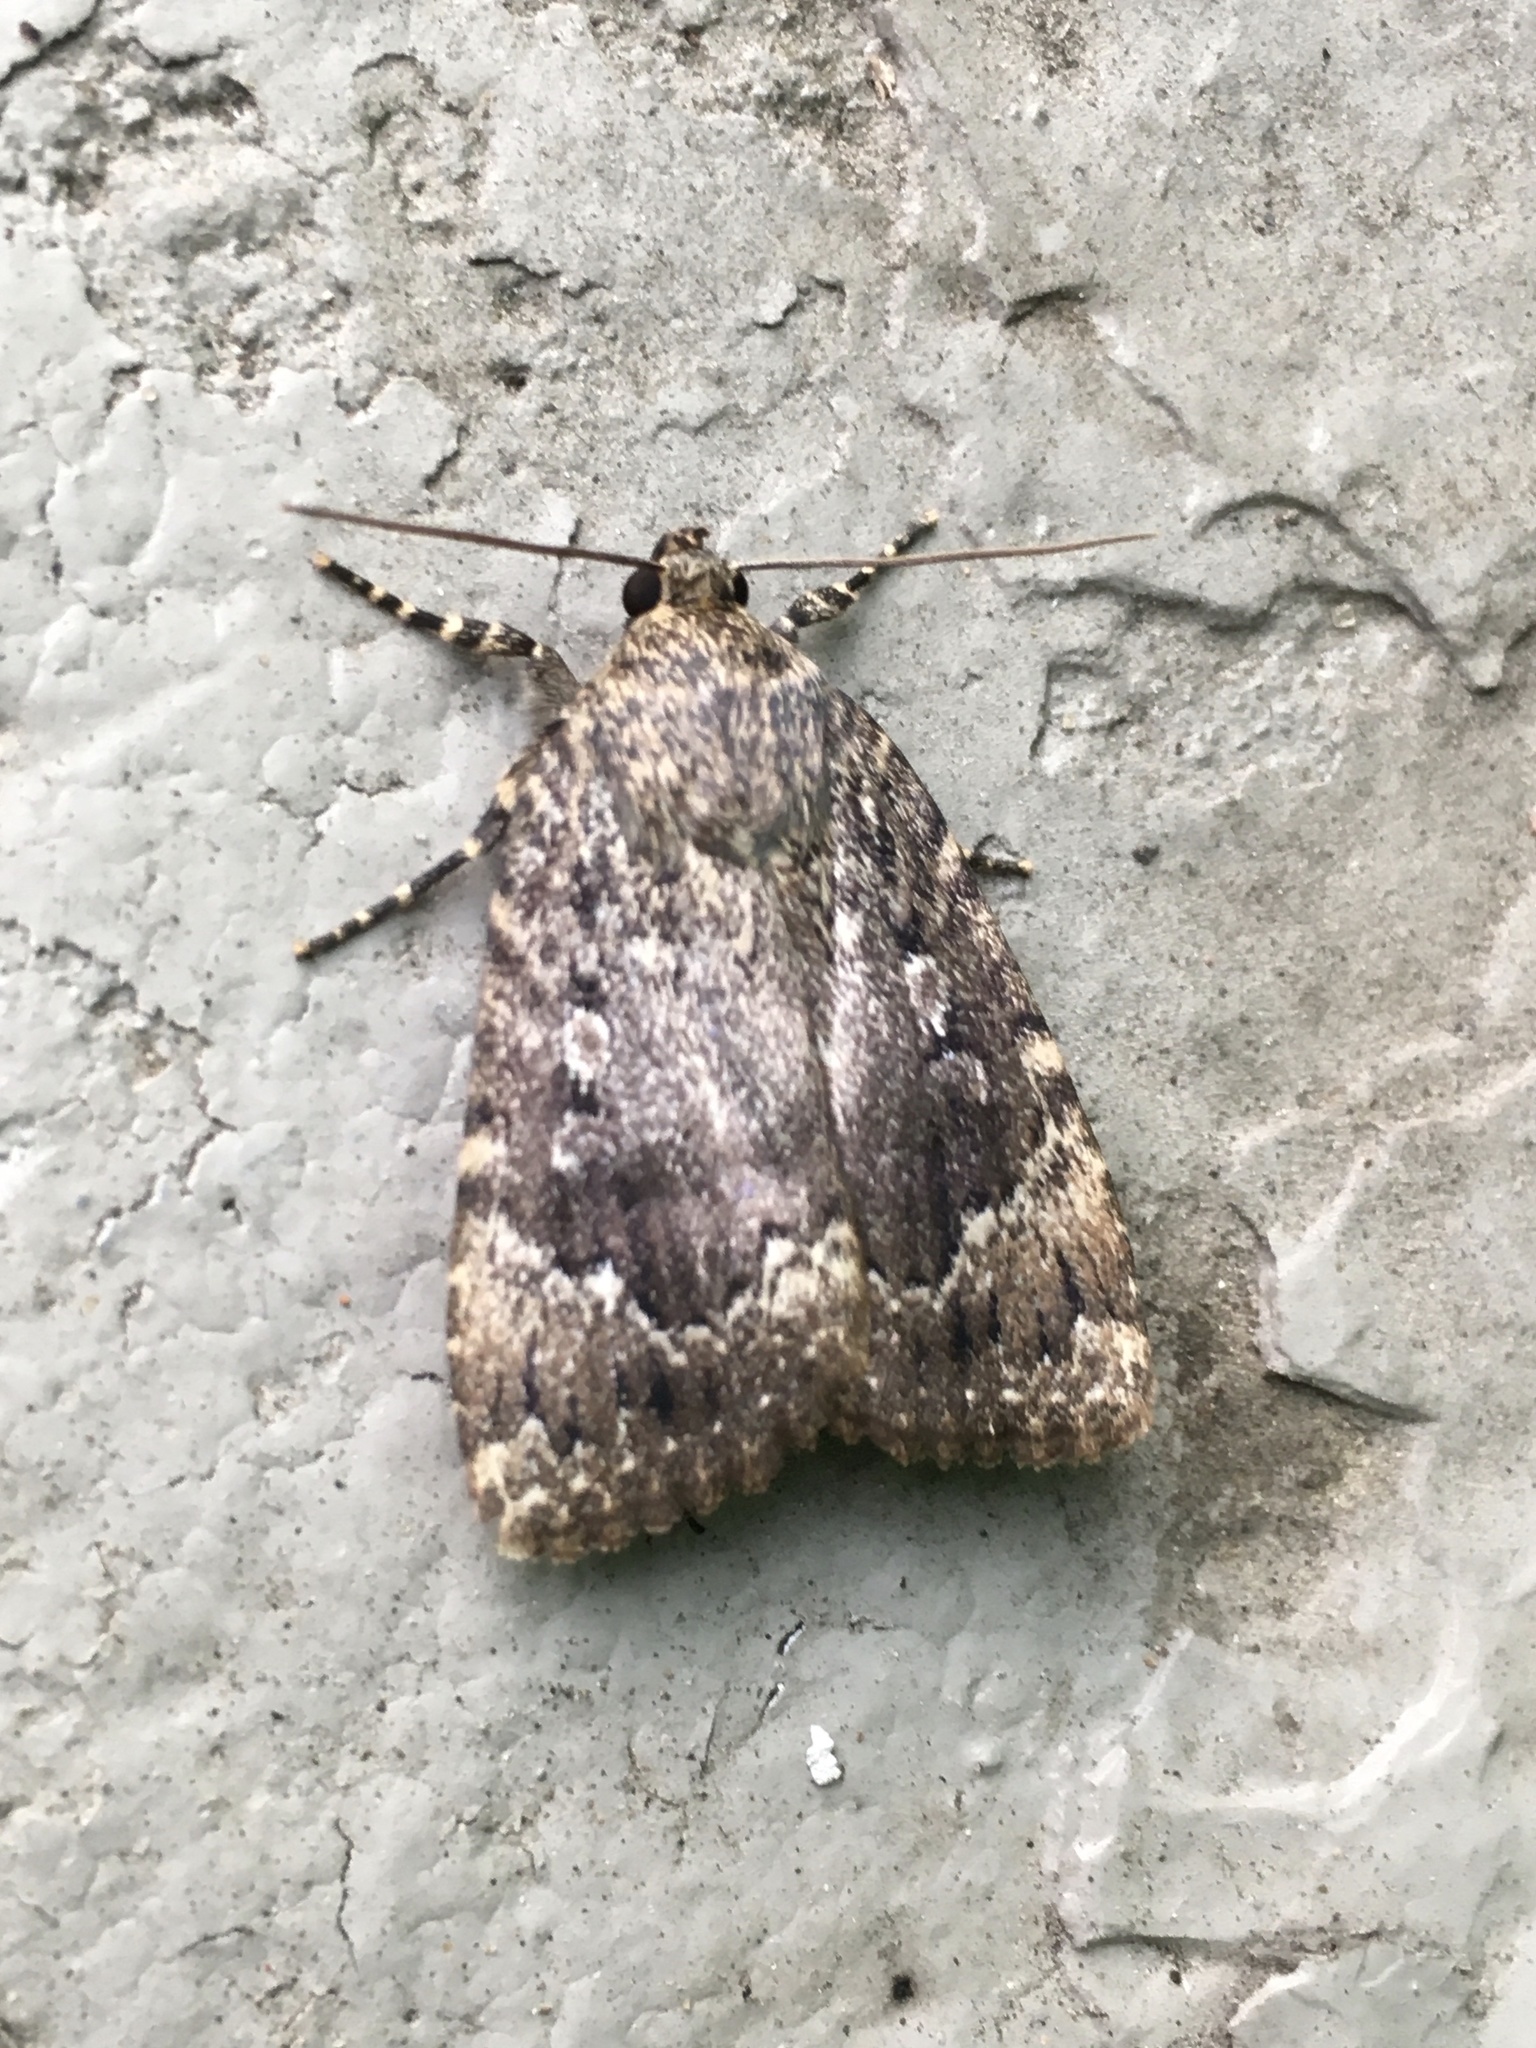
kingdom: Animalia
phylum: Arthropoda
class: Insecta
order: Lepidoptera
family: Noctuidae
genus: Amphipyra
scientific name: Amphipyra pyramidoides
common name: American copper underwing
